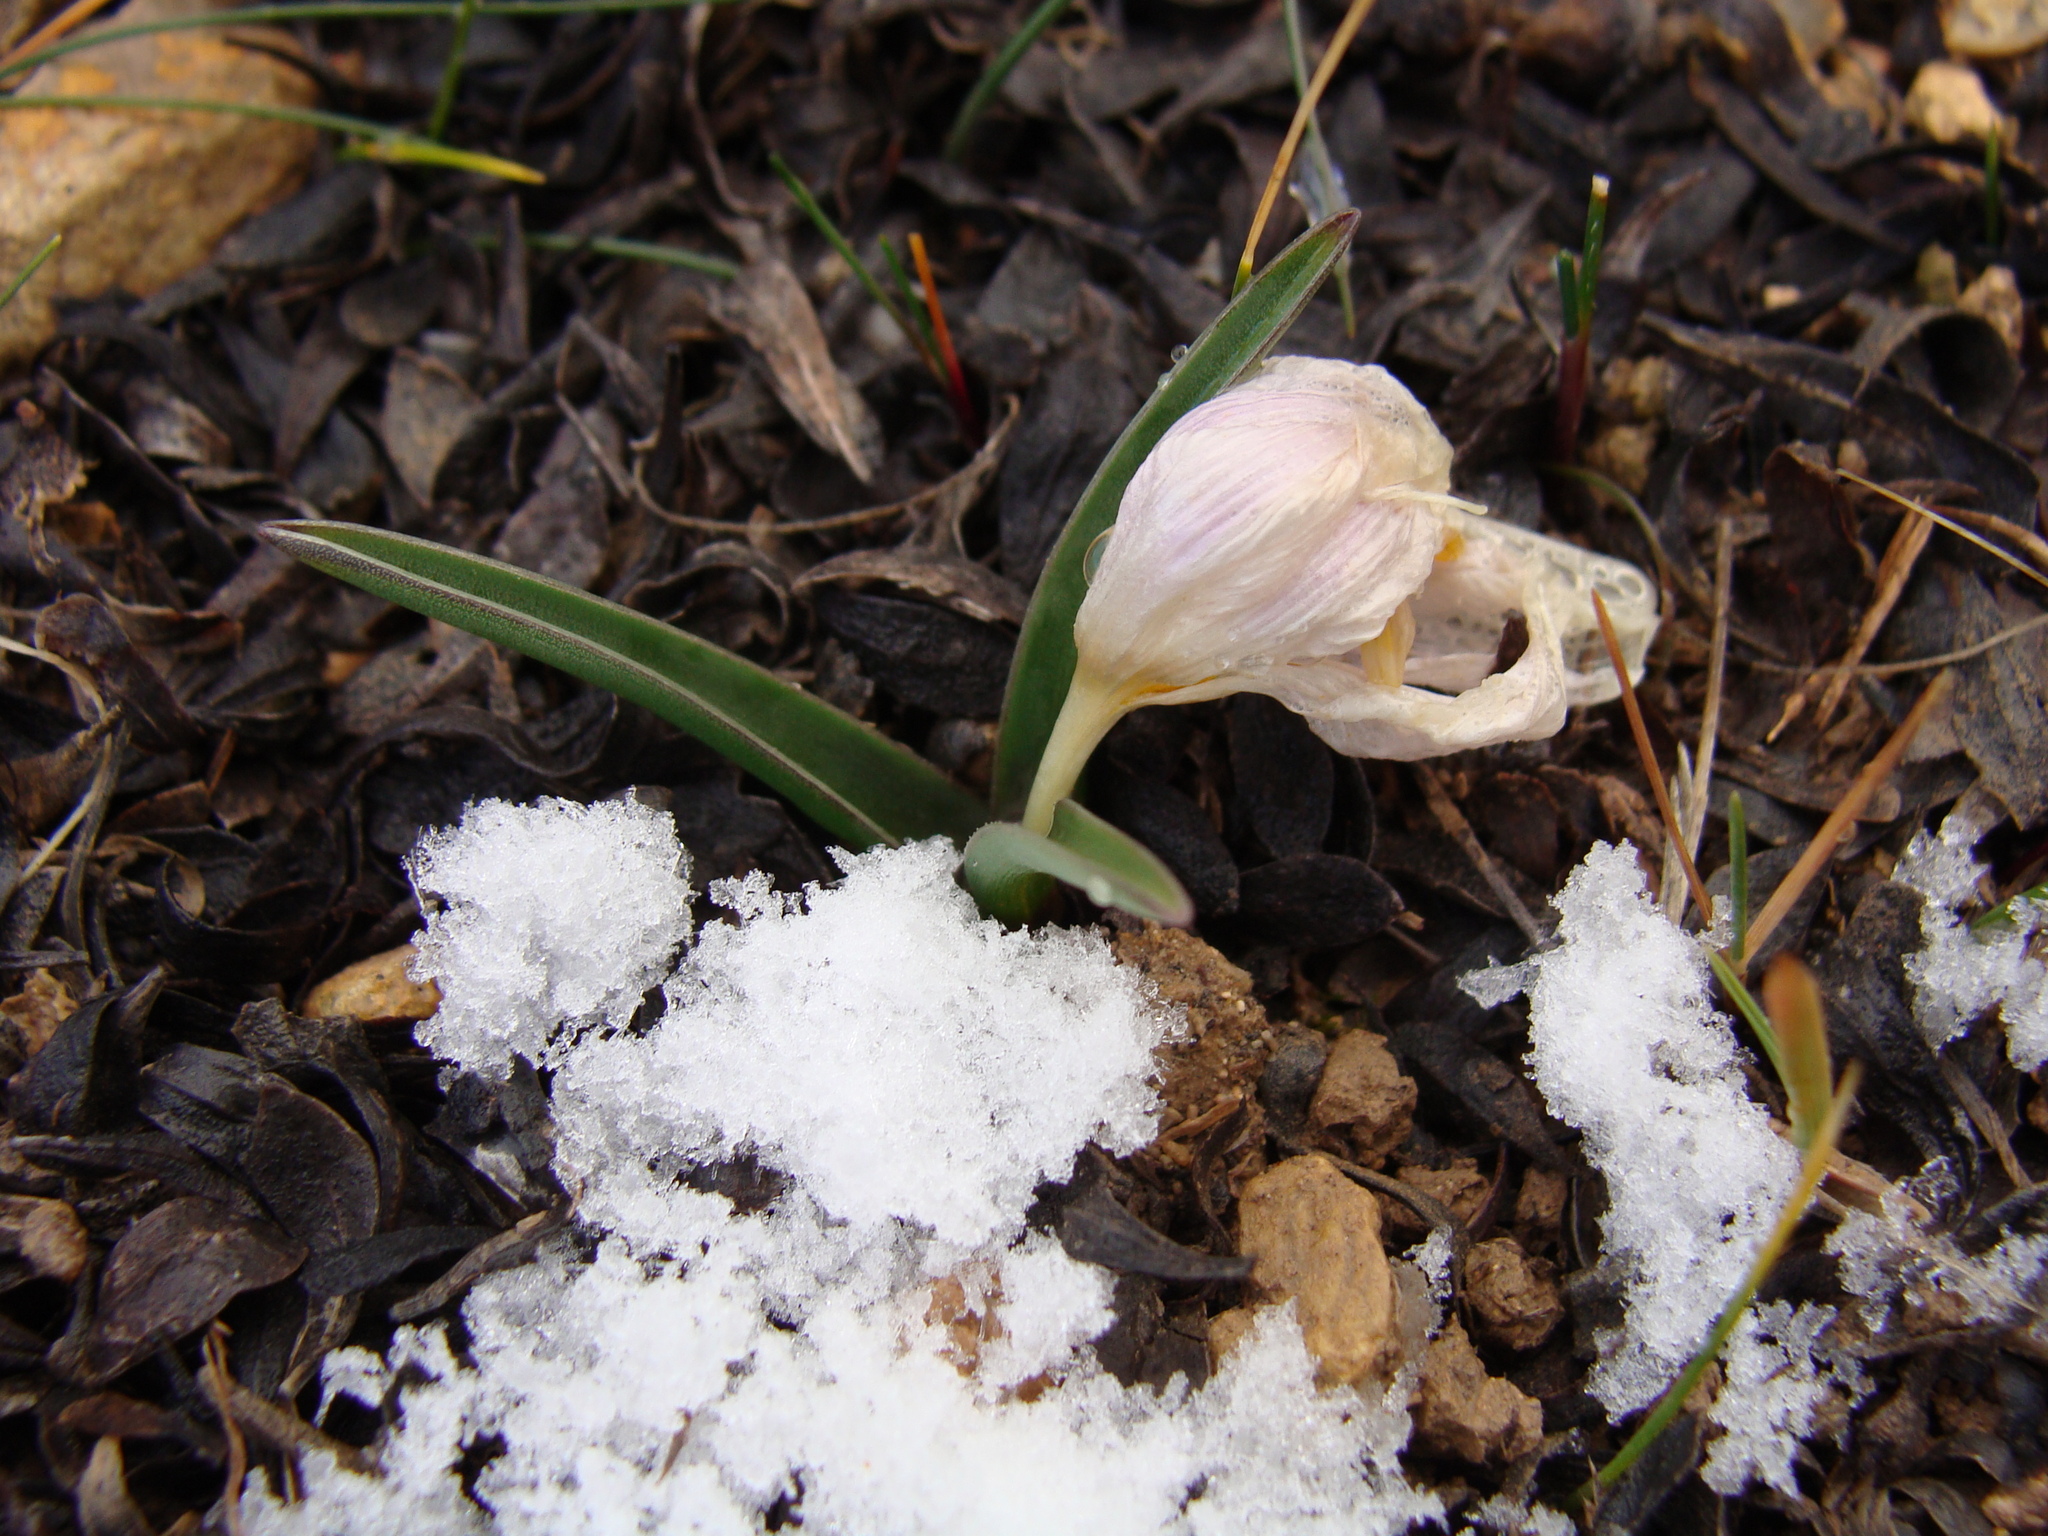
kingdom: Plantae
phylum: Tracheophyta
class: Liliopsida
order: Liliales
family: Colchicaceae
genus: Colchicum
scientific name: Colchicum triphyllum
